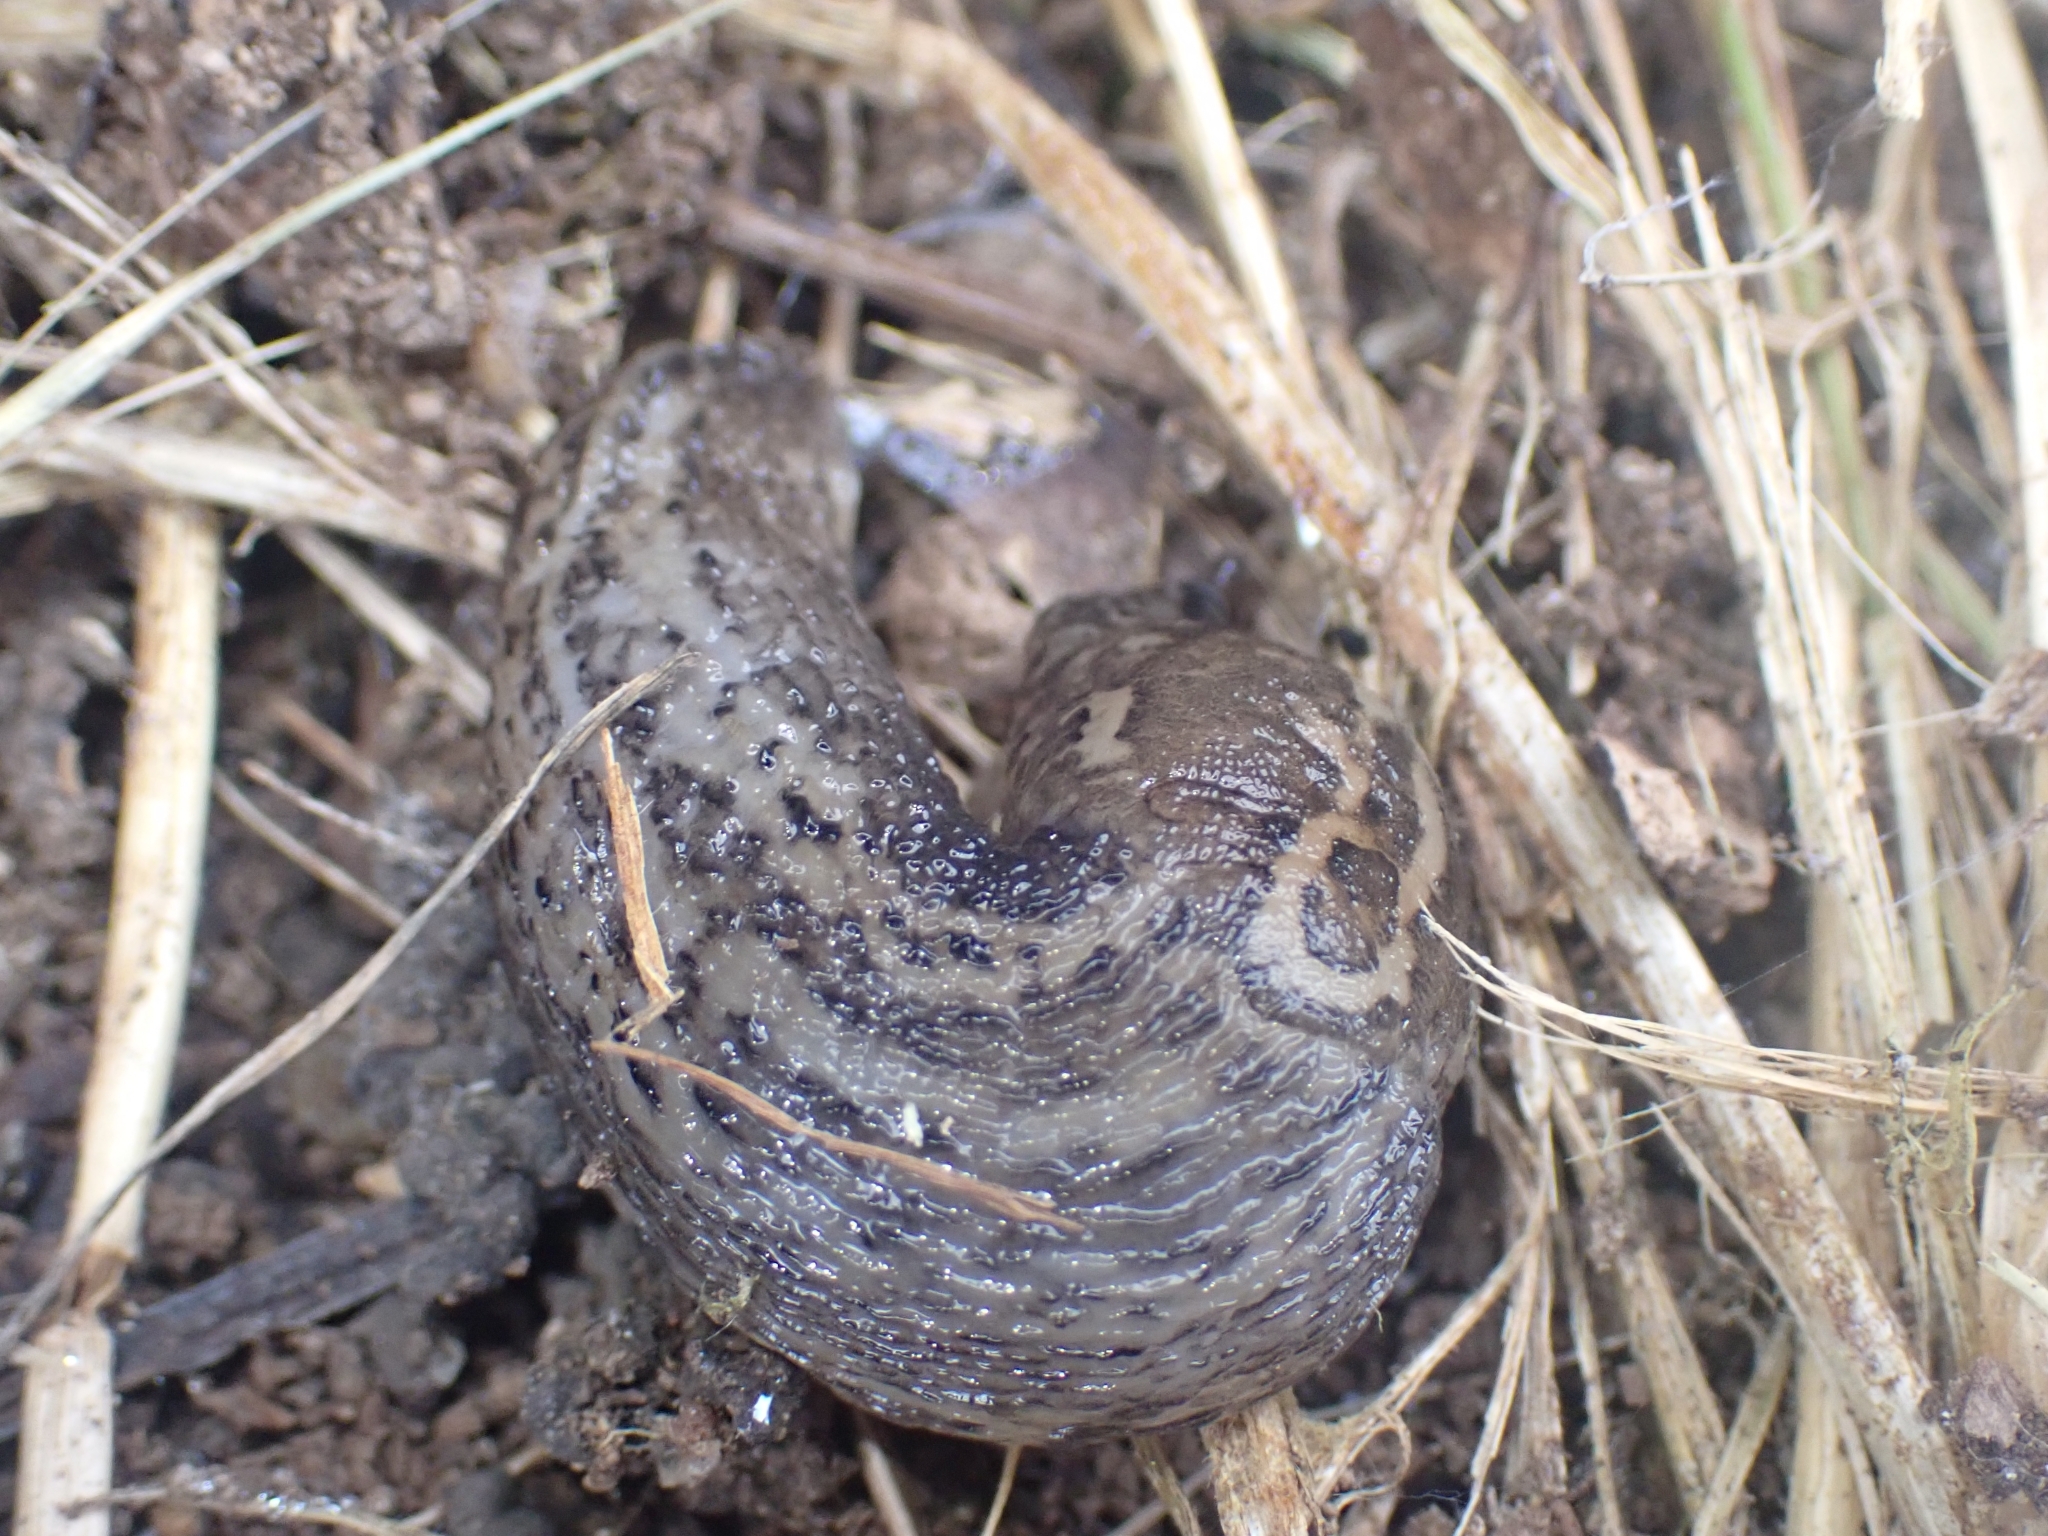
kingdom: Animalia
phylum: Mollusca
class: Gastropoda
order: Stylommatophora
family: Limacidae
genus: Limax
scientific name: Limax maximus
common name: Great grey slug
